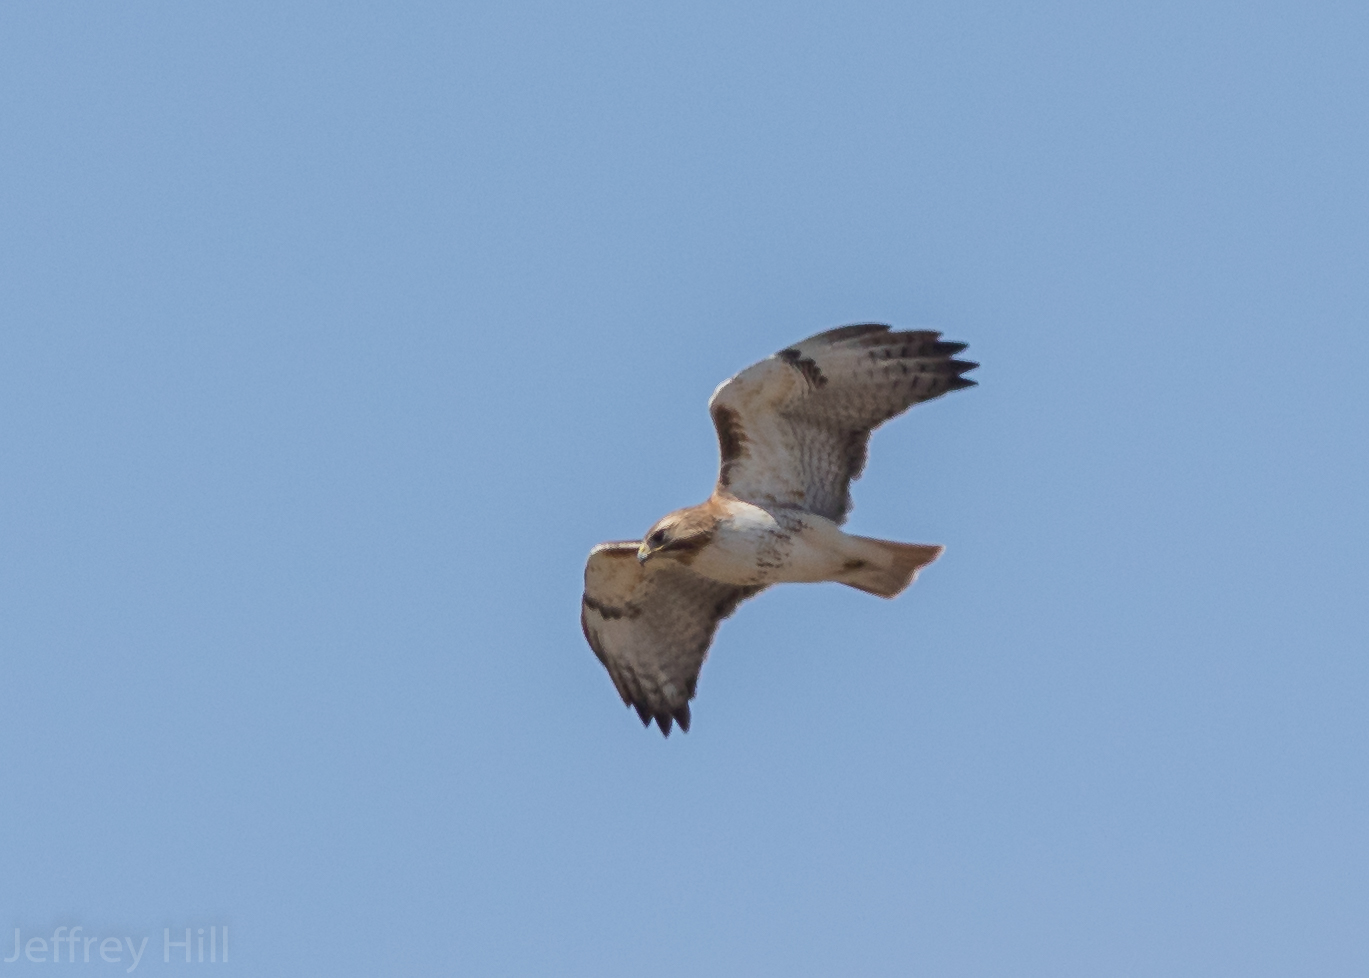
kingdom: Animalia
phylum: Chordata
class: Aves
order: Accipitriformes
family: Accipitridae
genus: Buteo
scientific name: Buteo jamaicensis
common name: Red-tailed hawk
